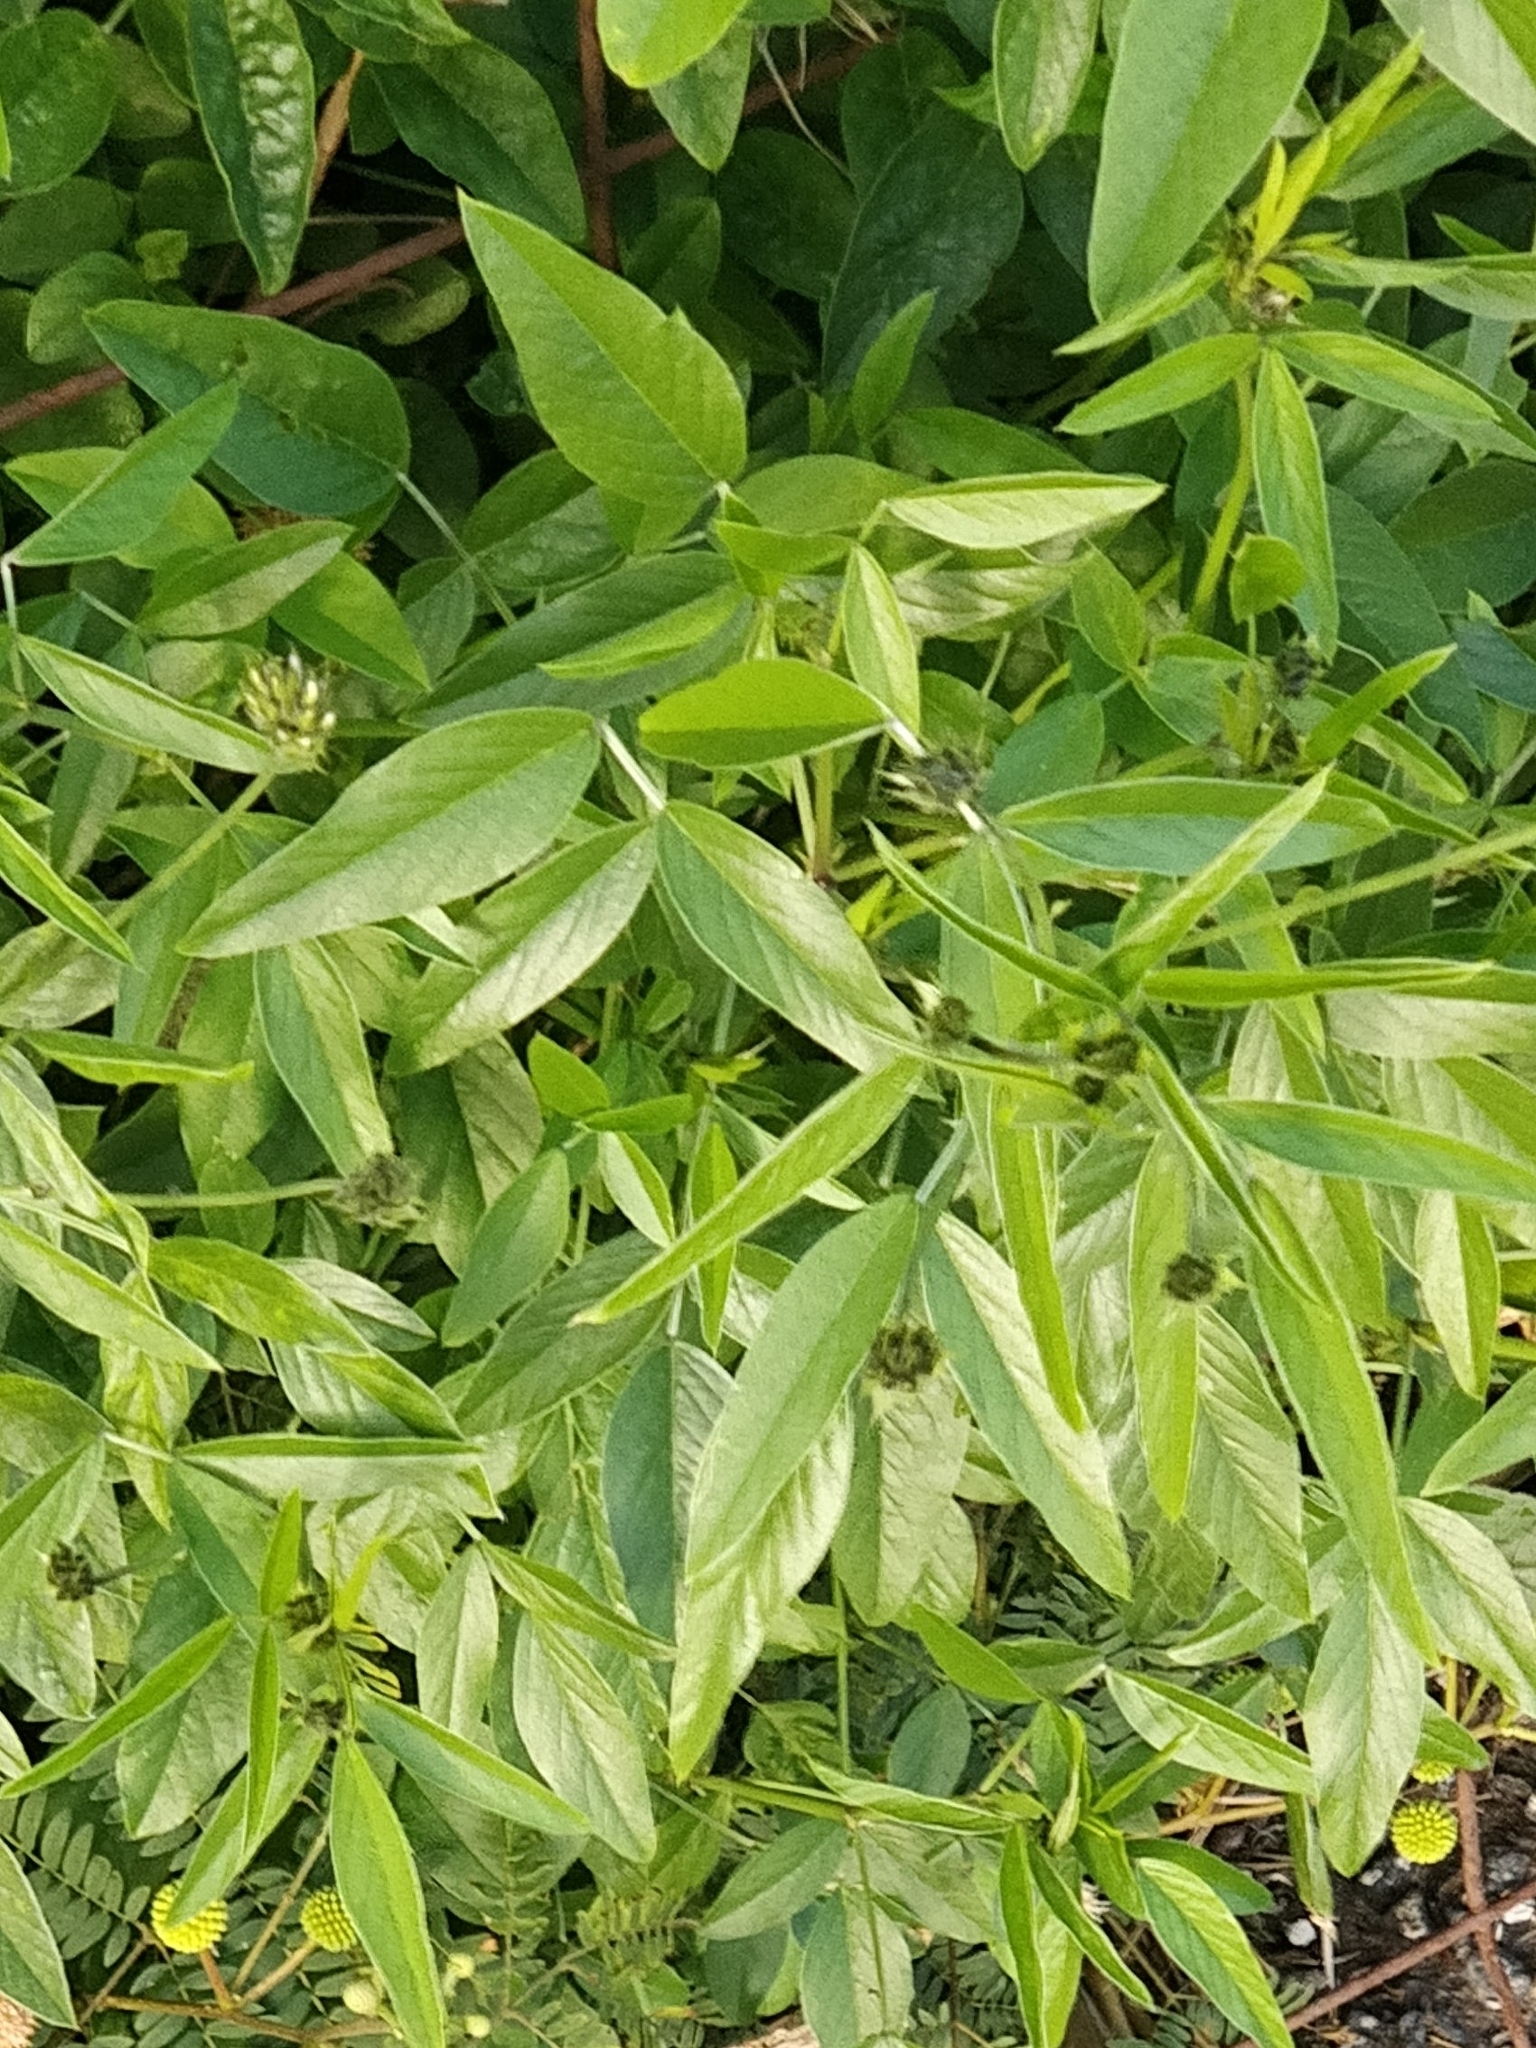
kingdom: Plantae
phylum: Tracheophyta
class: Magnoliopsida
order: Fabales
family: Fabaceae
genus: Bituminaria
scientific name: Bituminaria bituminosa
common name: Arabian pea
